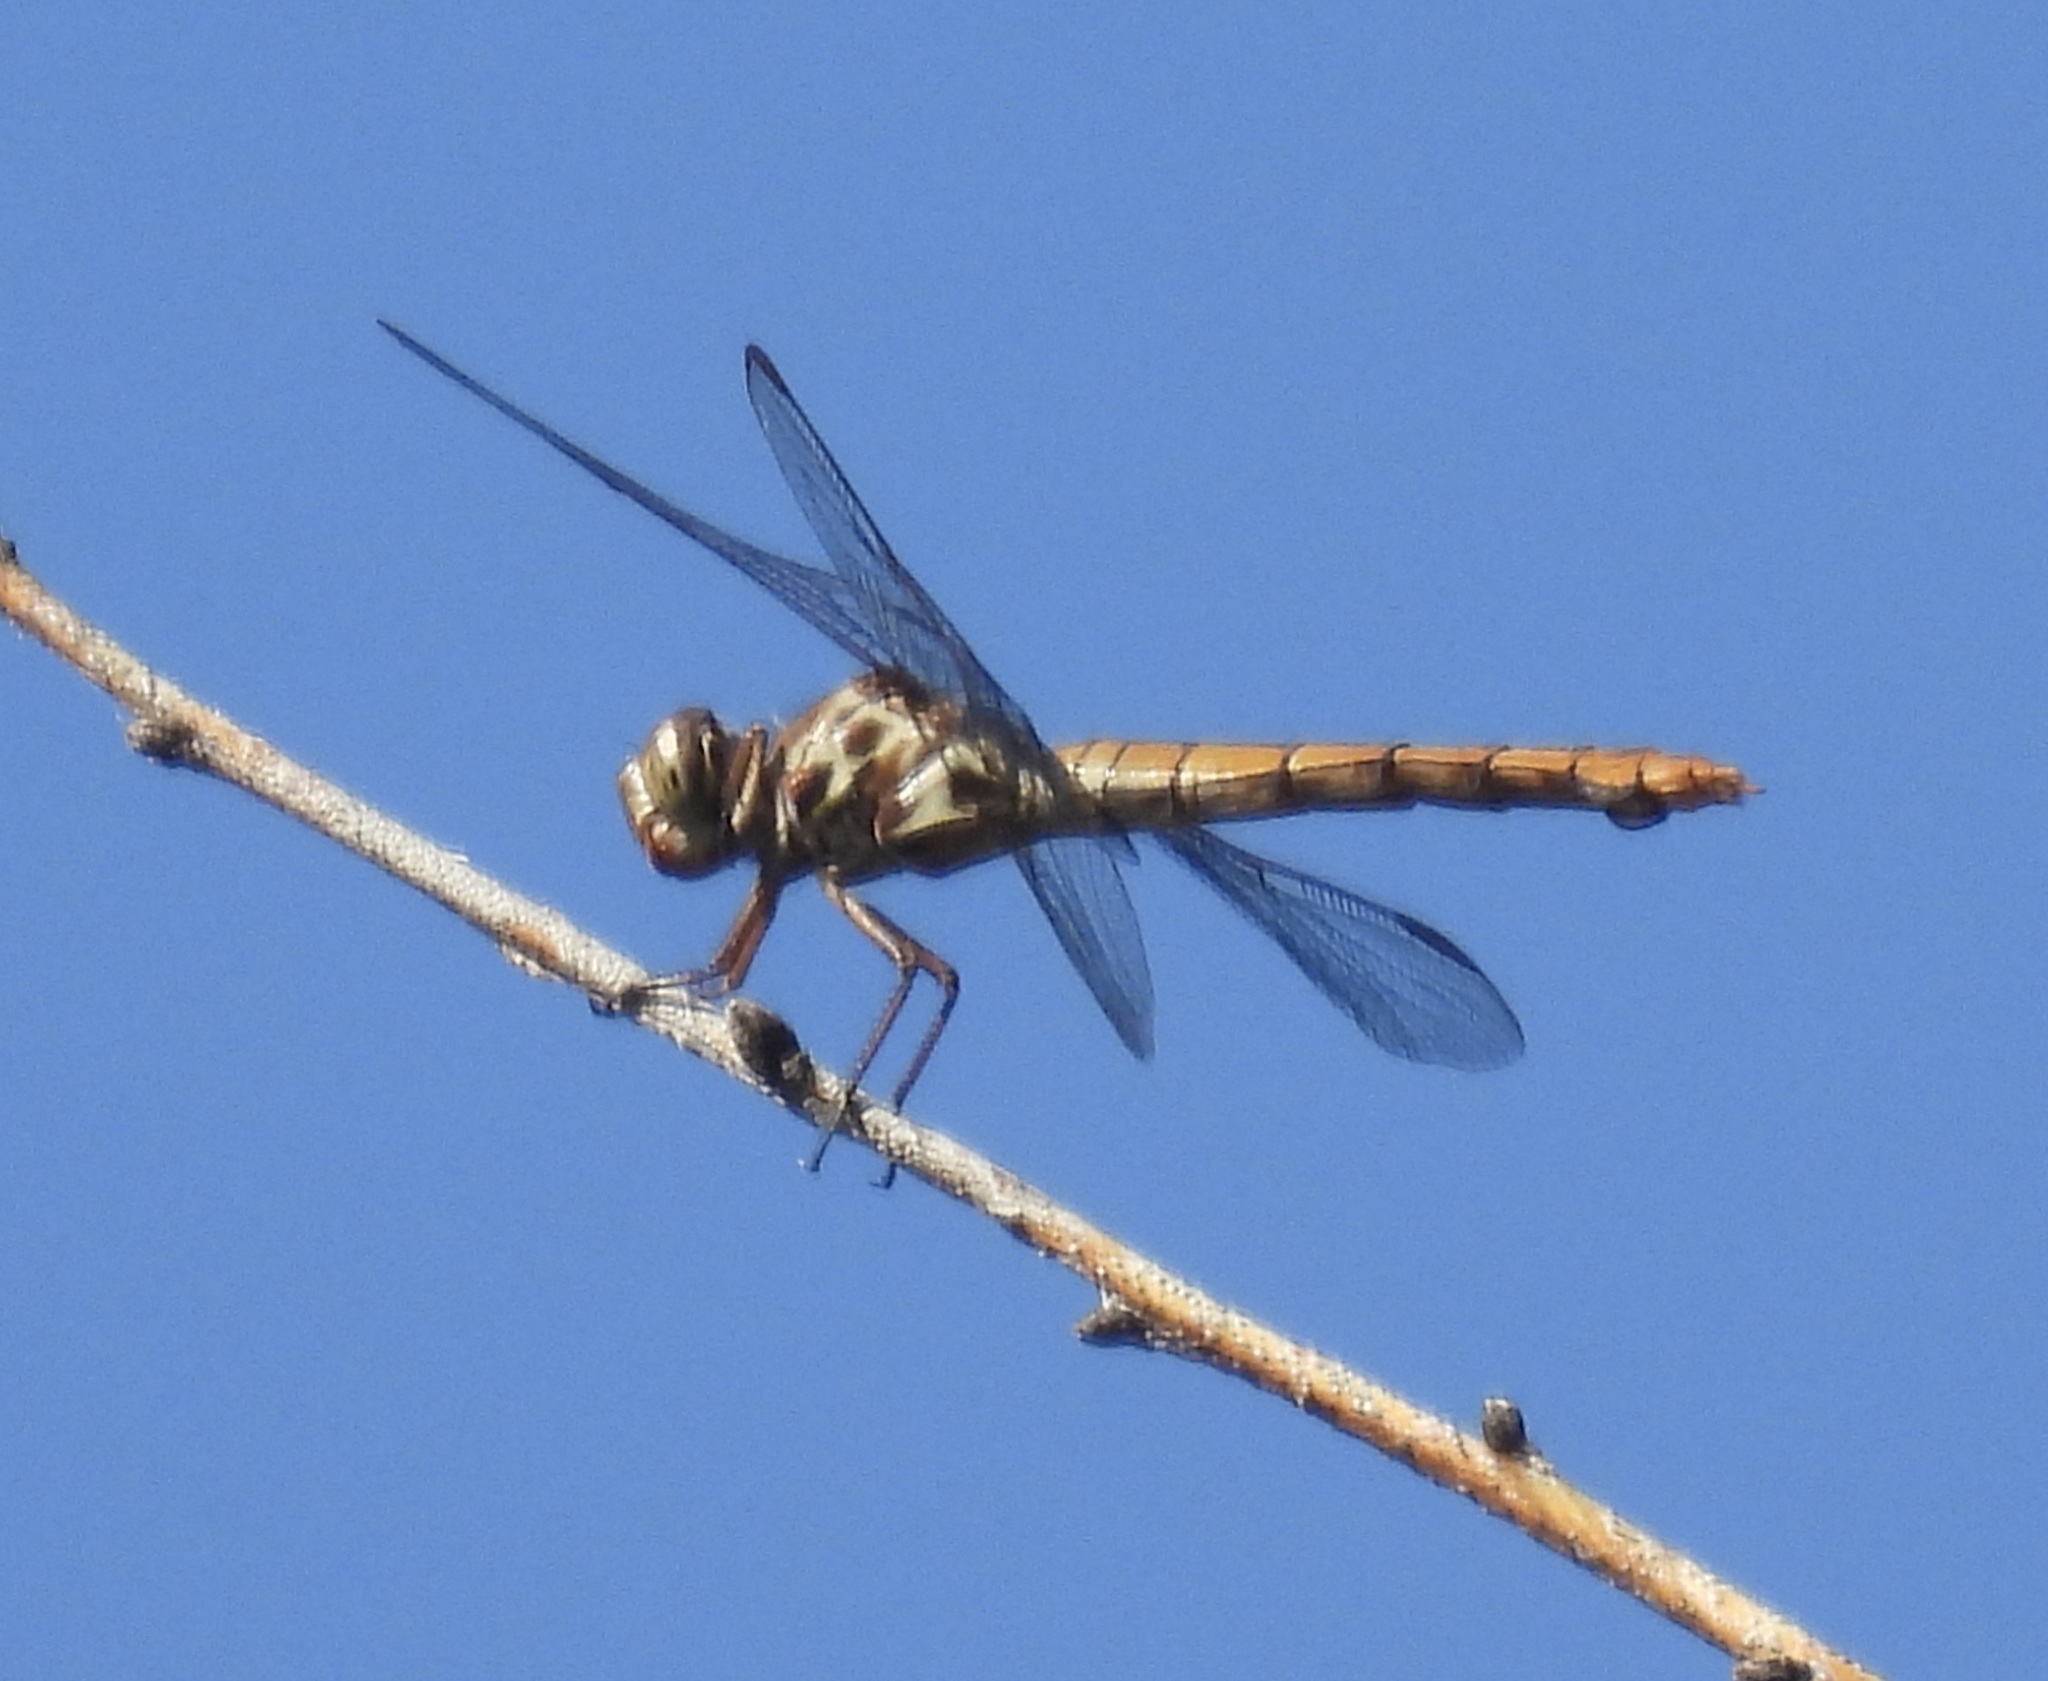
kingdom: Animalia
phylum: Arthropoda
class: Insecta
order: Odonata
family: Libellulidae
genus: Orthemis
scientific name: Orthemis ferruginea
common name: Roseate skimmer
